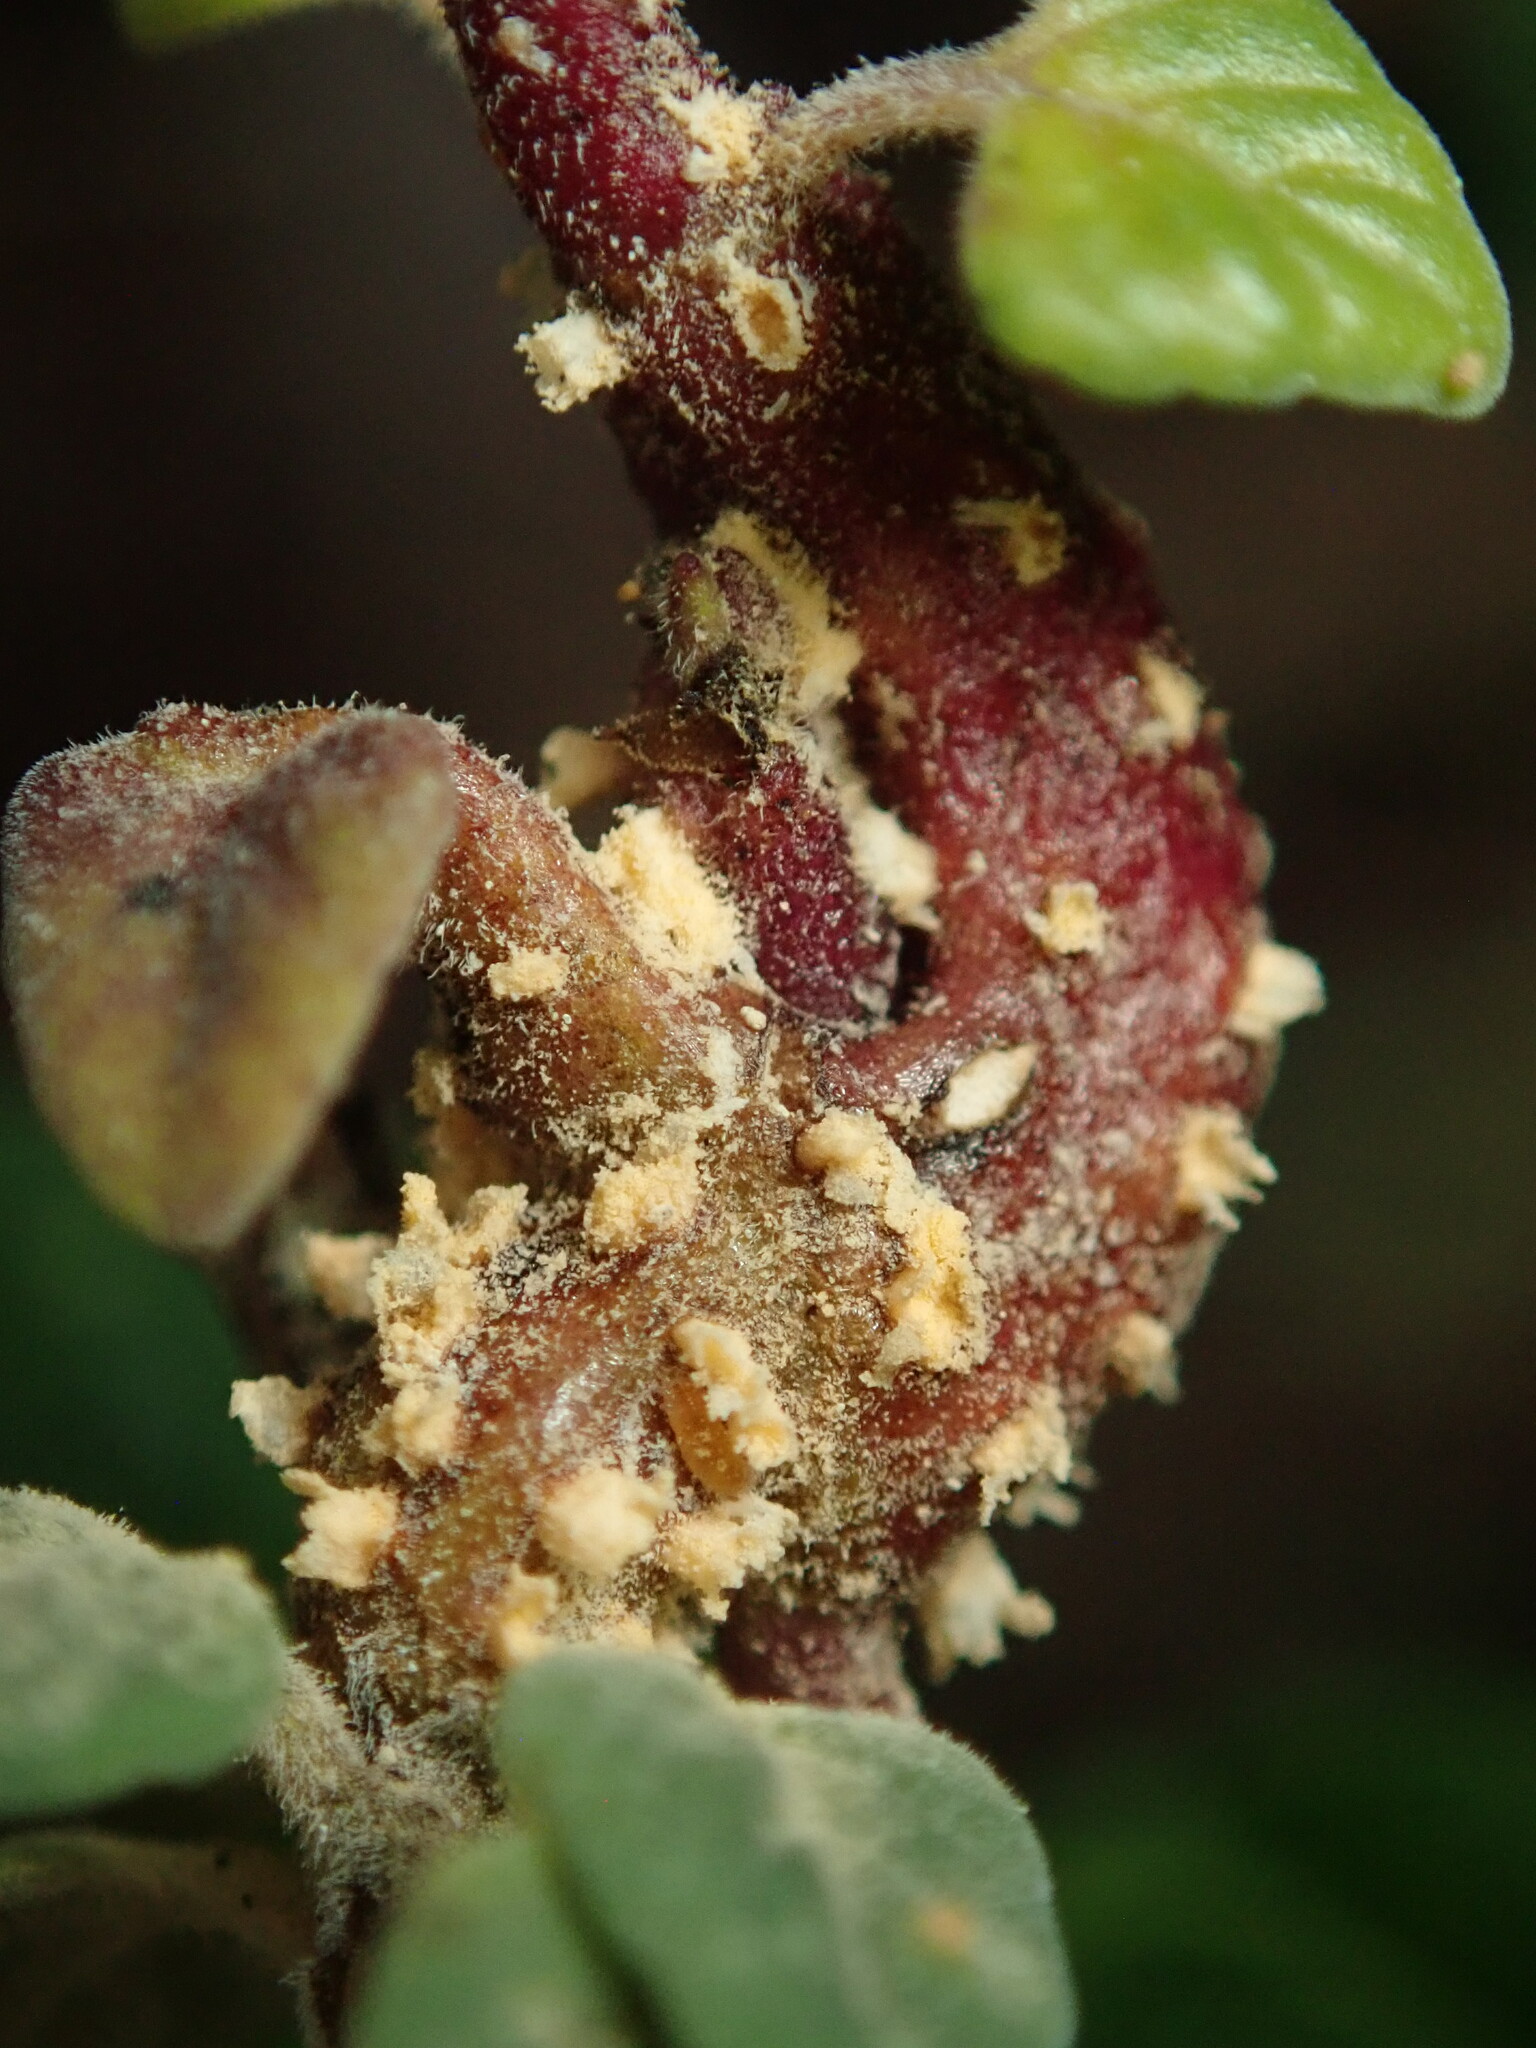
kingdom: Fungi
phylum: Basidiomycota
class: Pucciniomycetes
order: Pucciniales
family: Pucciniaceae
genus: Puccinia
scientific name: Puccinia menthae
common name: Mint rust
